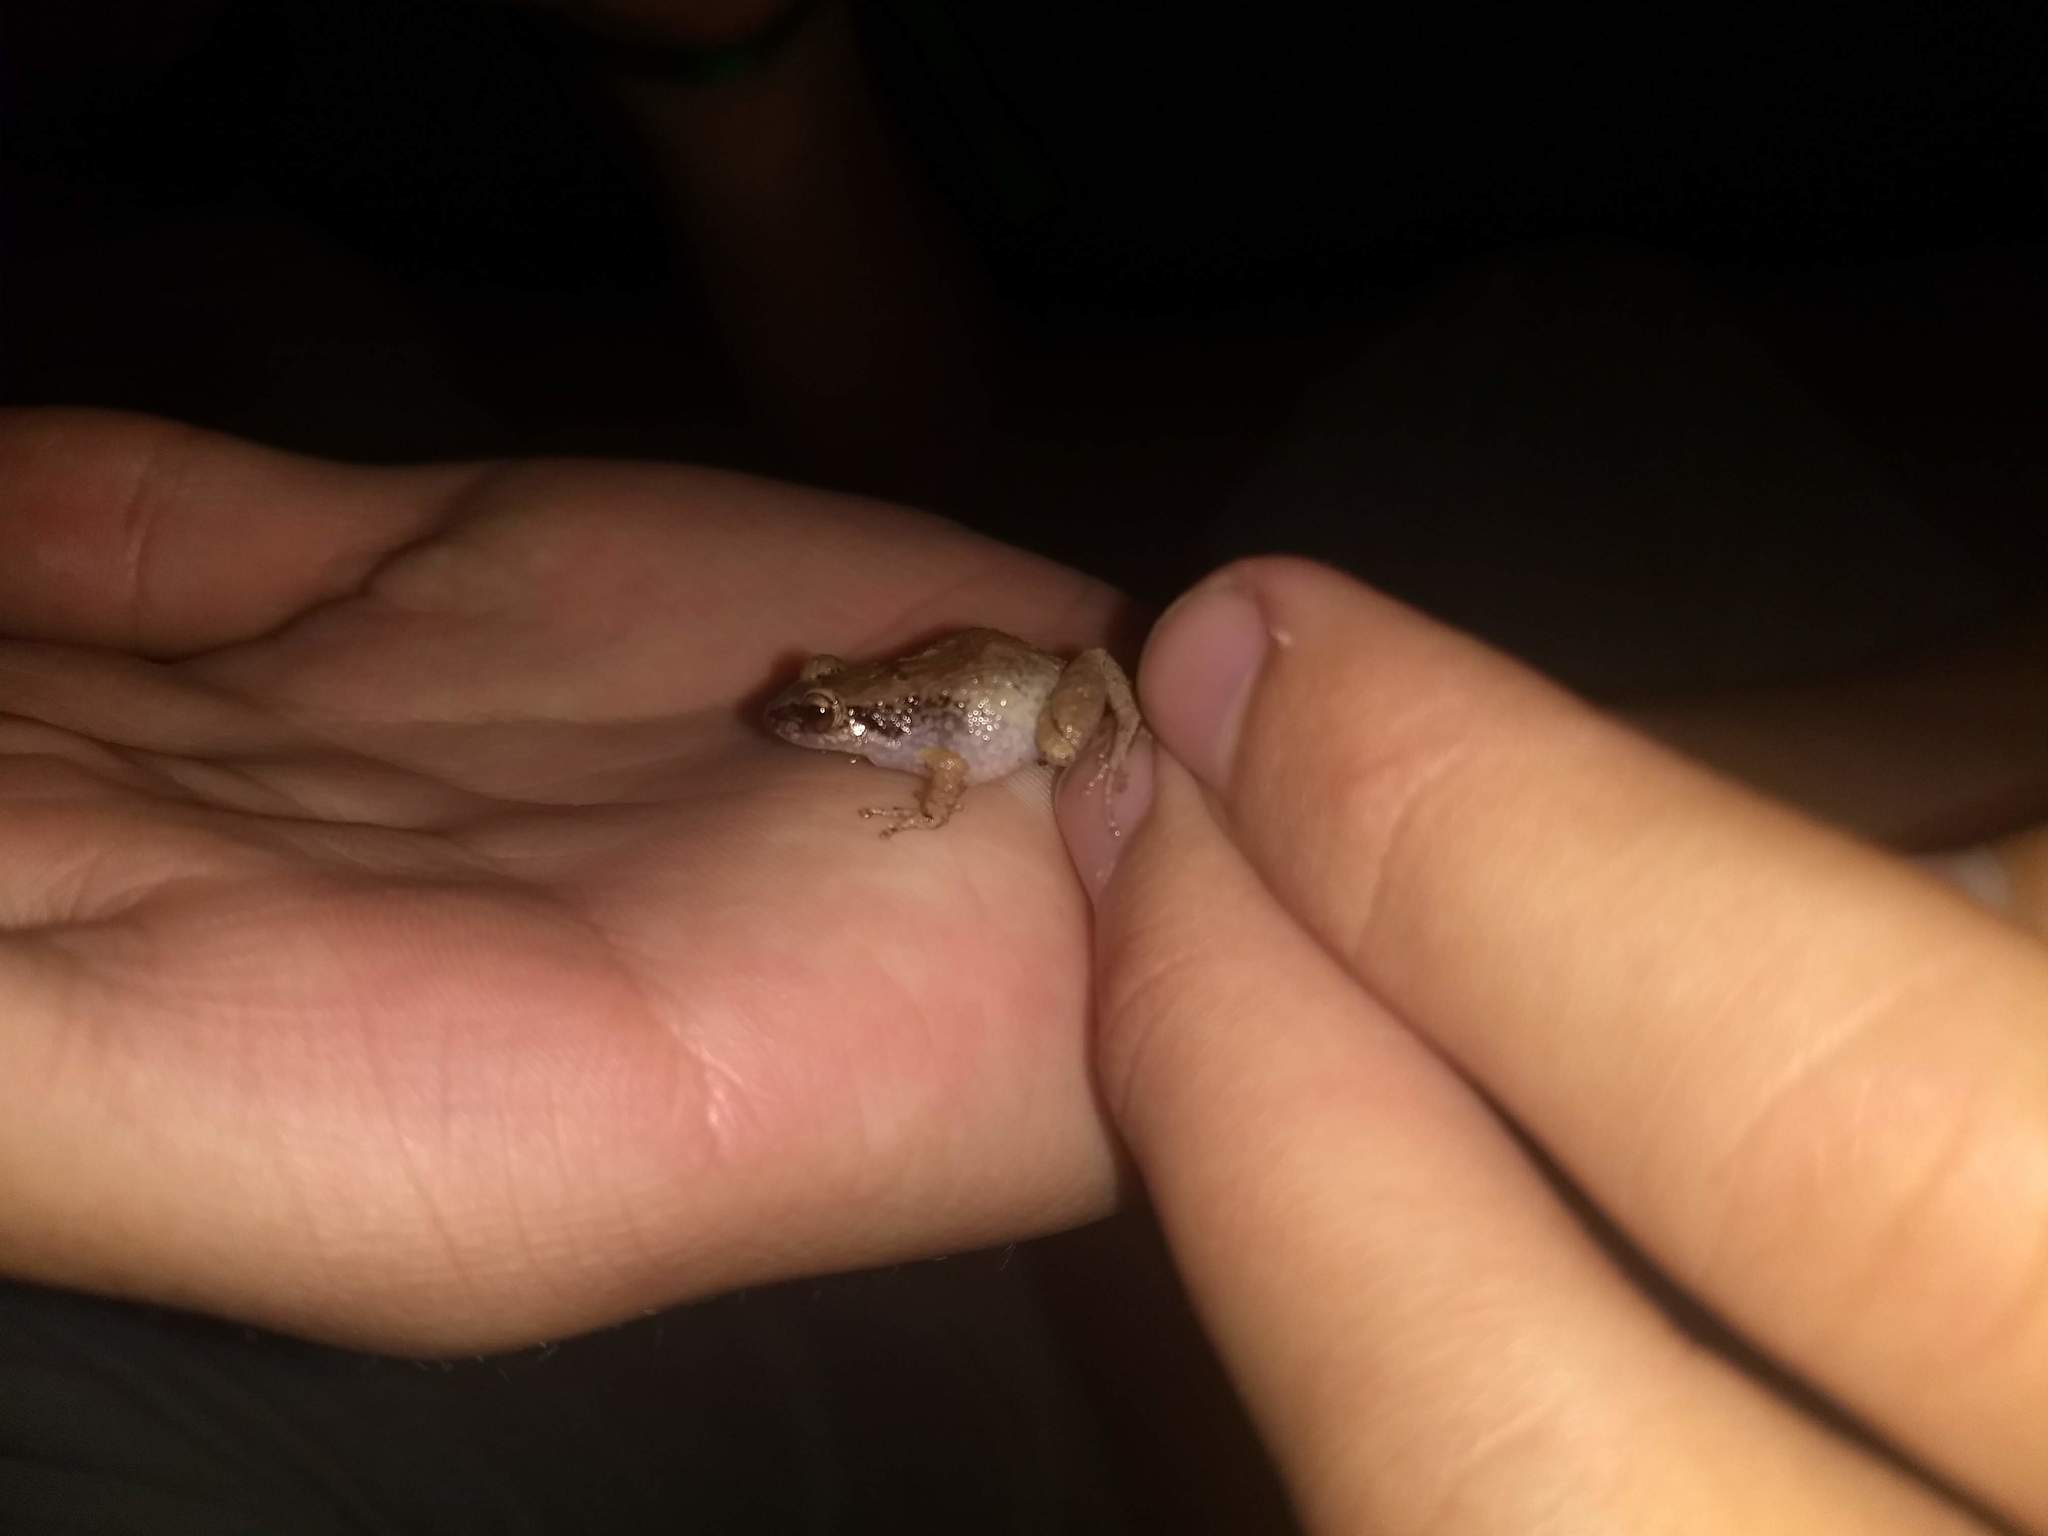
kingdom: Animalia
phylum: Chordata
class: Amphibia
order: Anura
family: Eleutherodactylidae
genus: Eleutherodactylus
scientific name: Eleutherodactylus johnstonei
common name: Johnstone's robber frog
